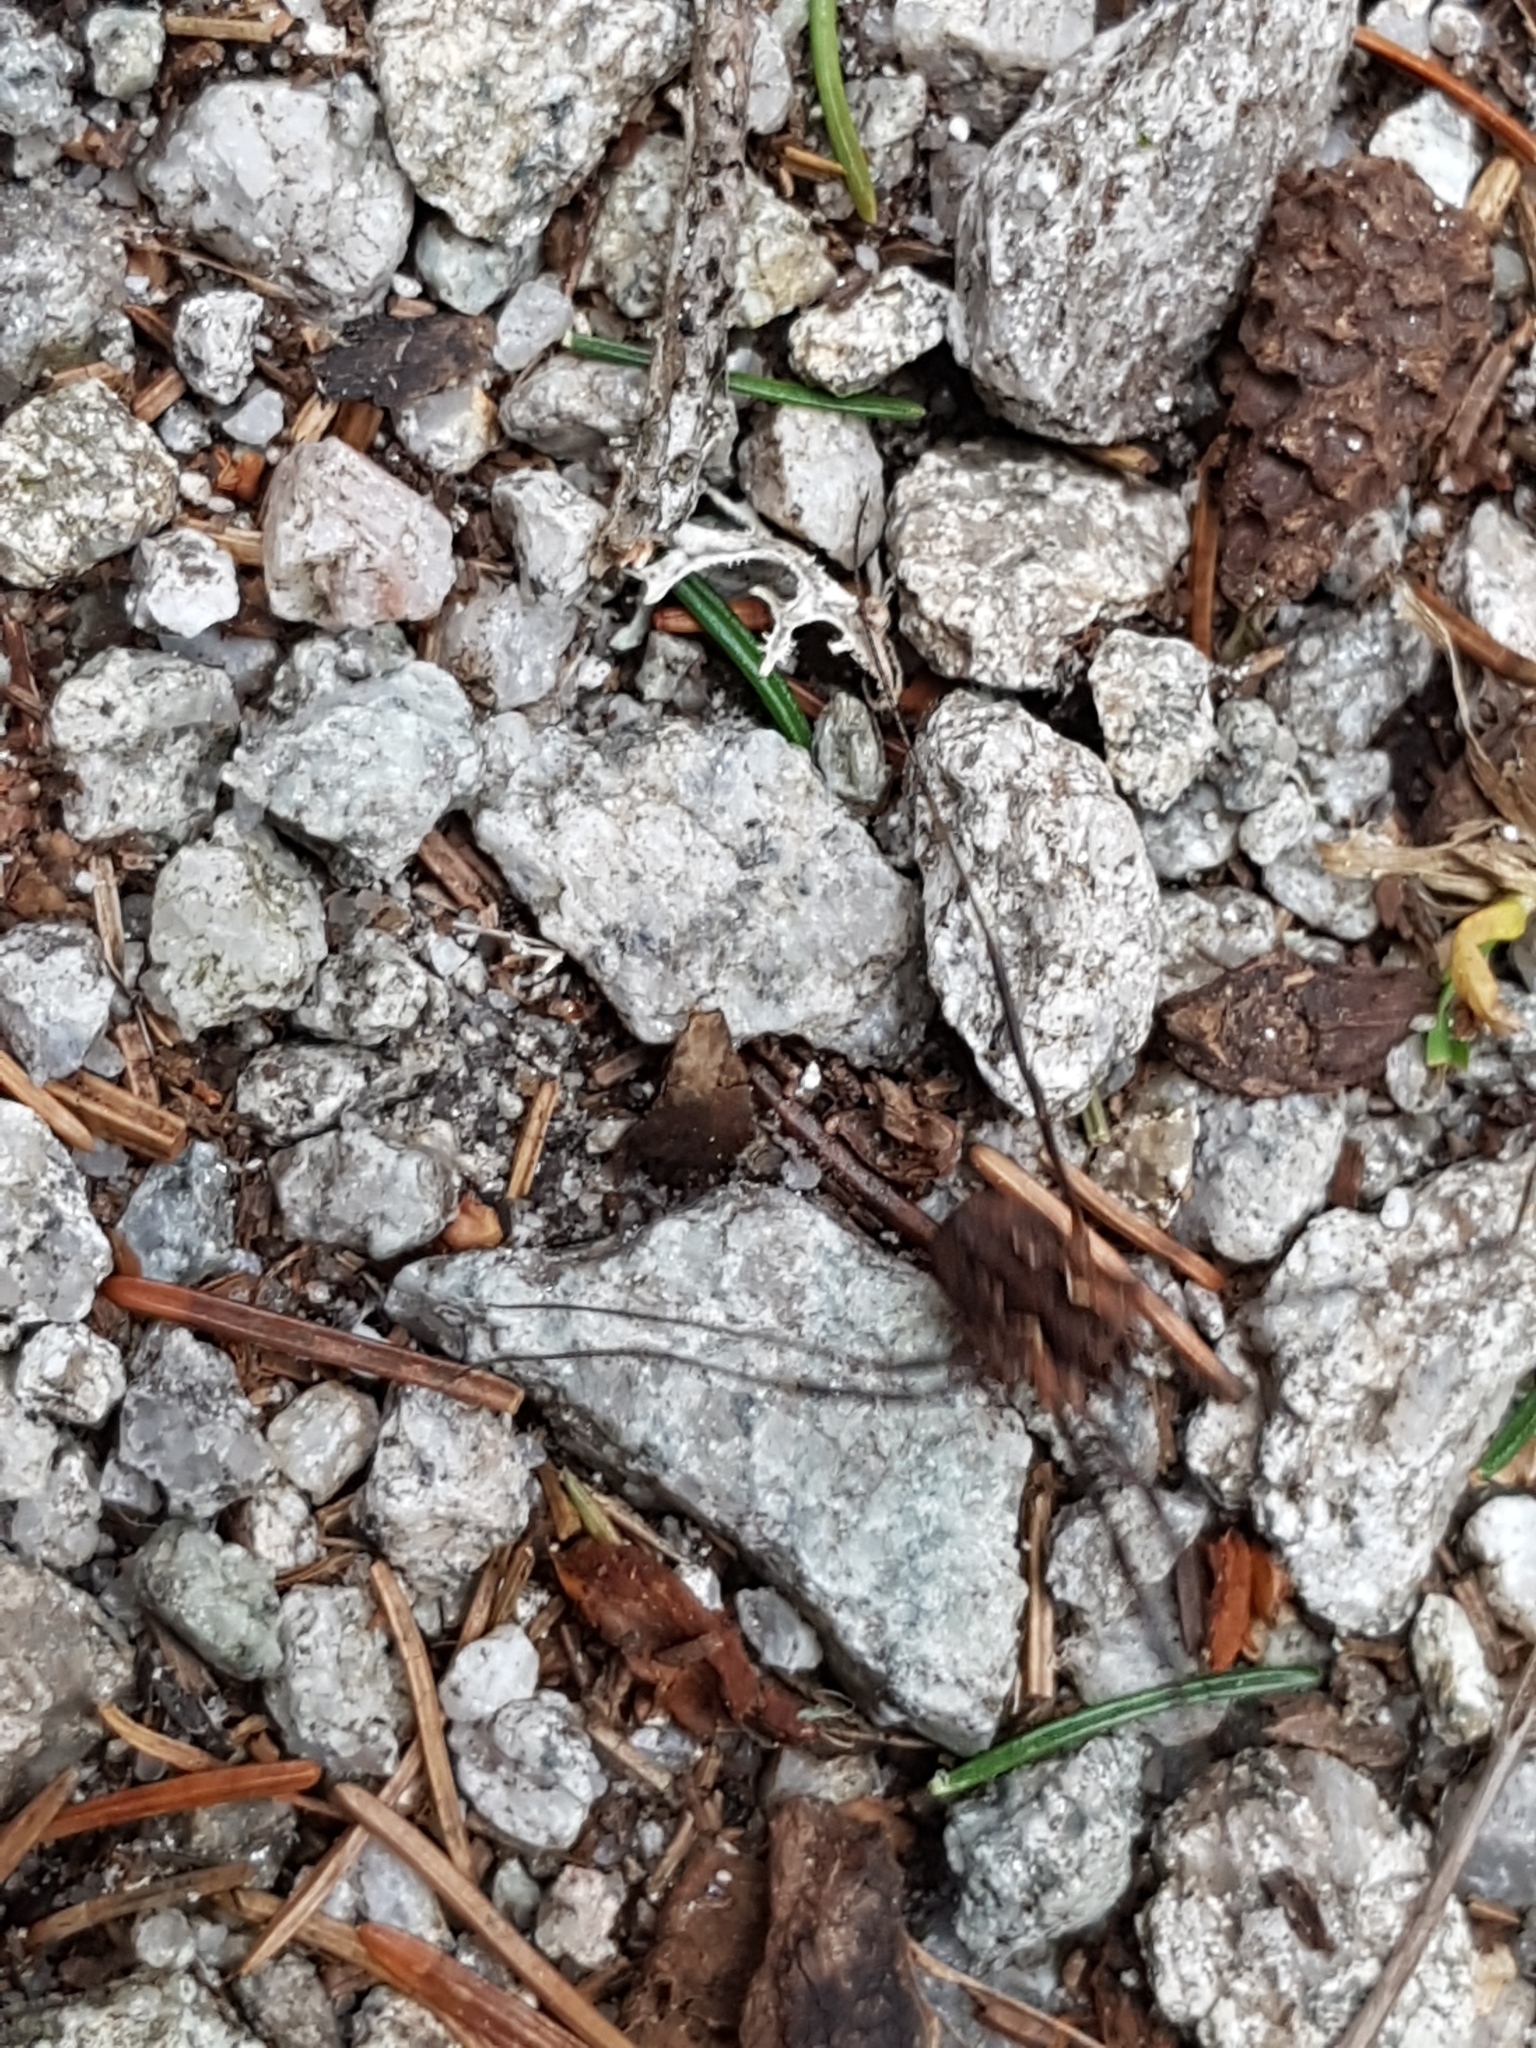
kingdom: Animalia
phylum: Arthropoda
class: Arachnida
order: Opiliones
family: Phalangiidae
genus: Mitopus
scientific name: Mitopus morio
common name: Saddleback harvestman
